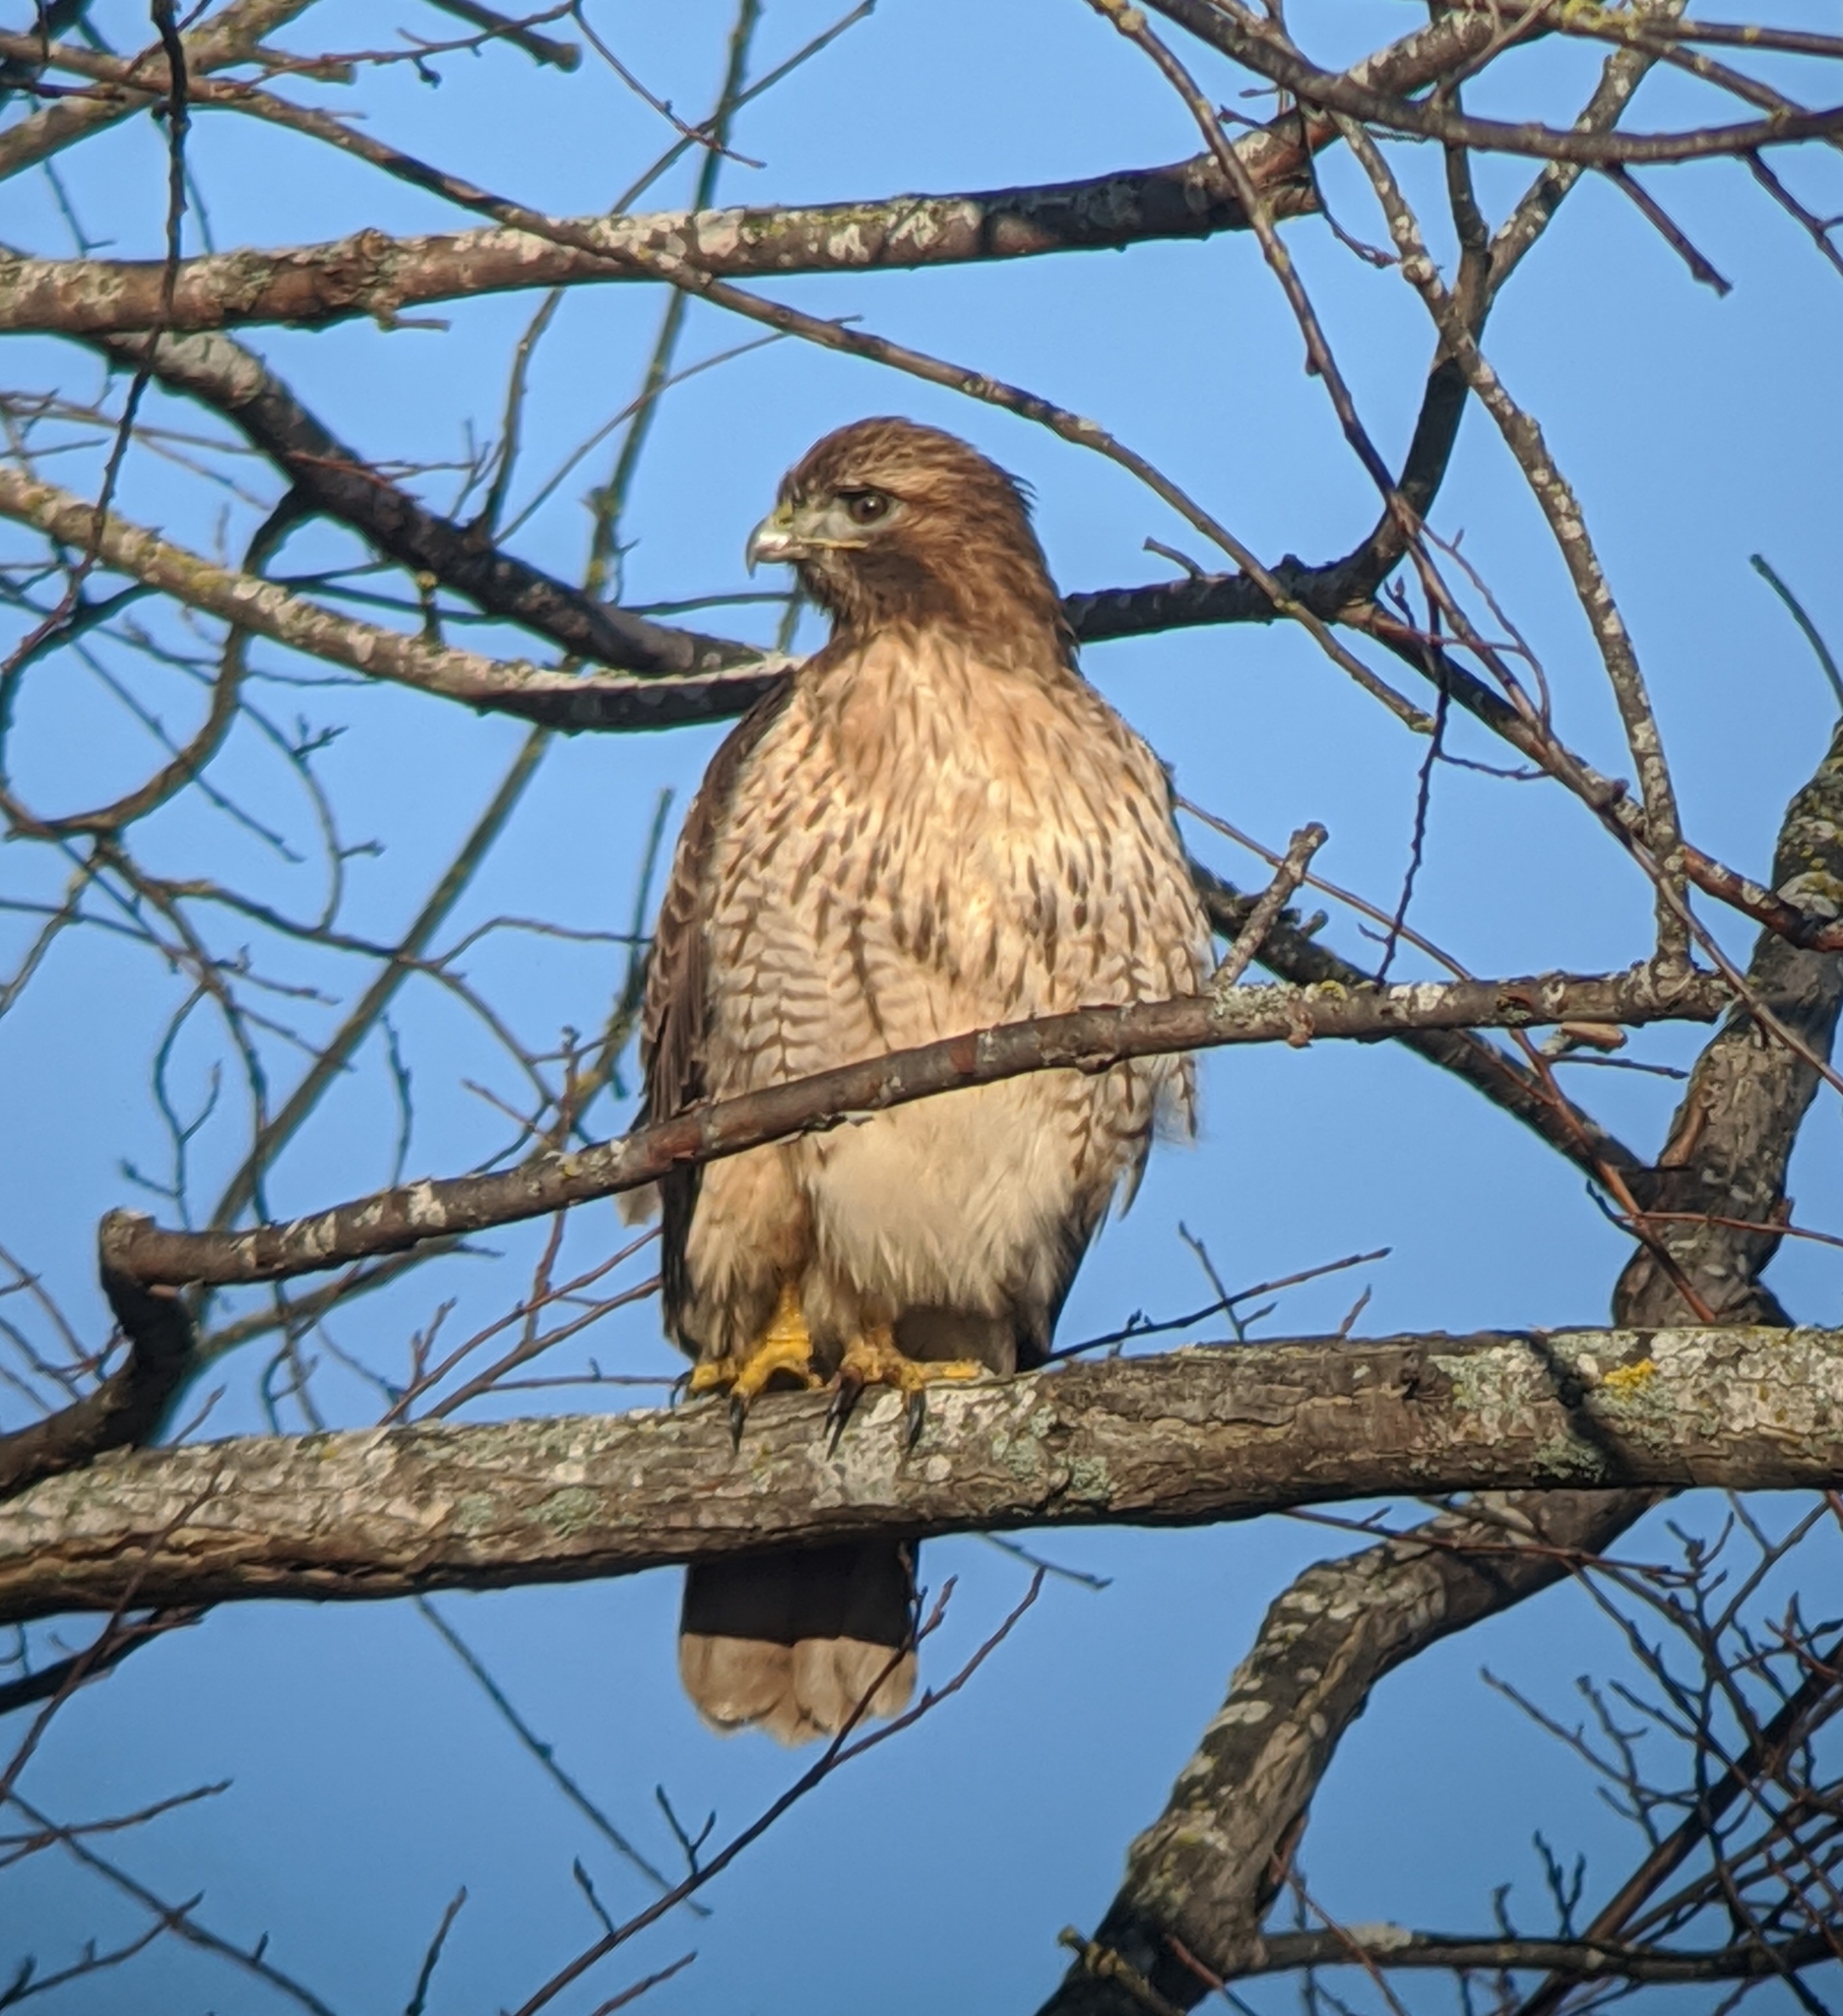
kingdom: Animalia
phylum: Chordata
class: Aves
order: Accipitriformes
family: Accipitridae
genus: Buteo
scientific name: Buteo jamaicensis
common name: Red-tailed hawk
